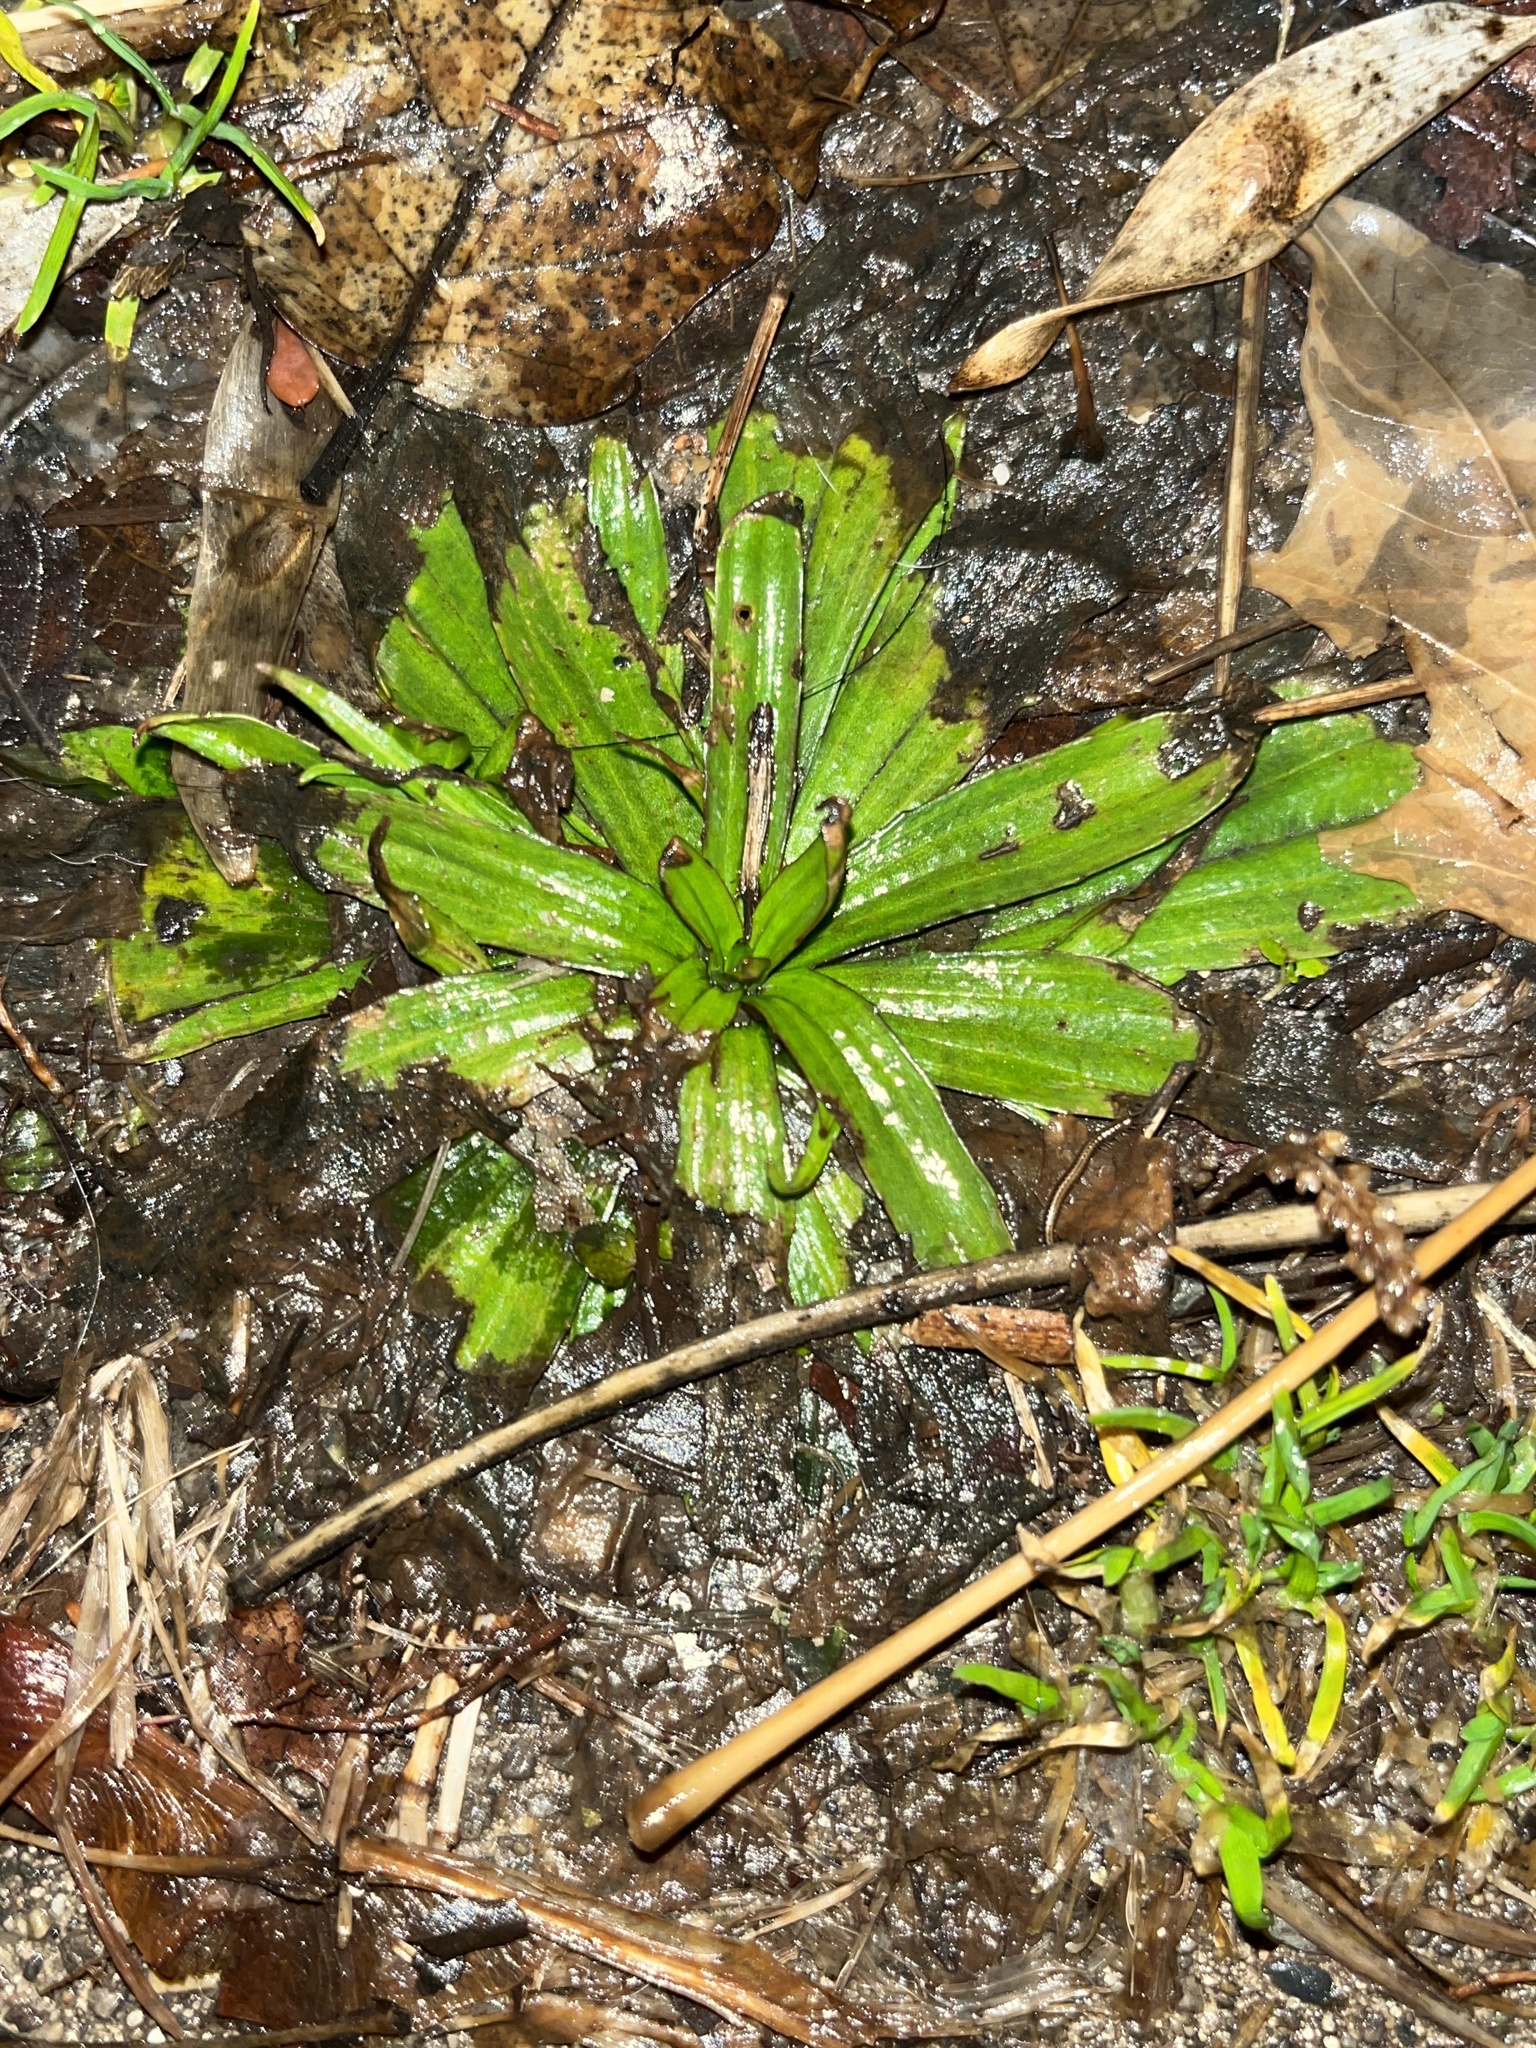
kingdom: Plantae
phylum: Tracheophyta
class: Magnoliopsida
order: Lamiales
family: Plantaginaceae
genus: Plantago
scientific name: Plantago lanceolata
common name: Ribwort plantain
